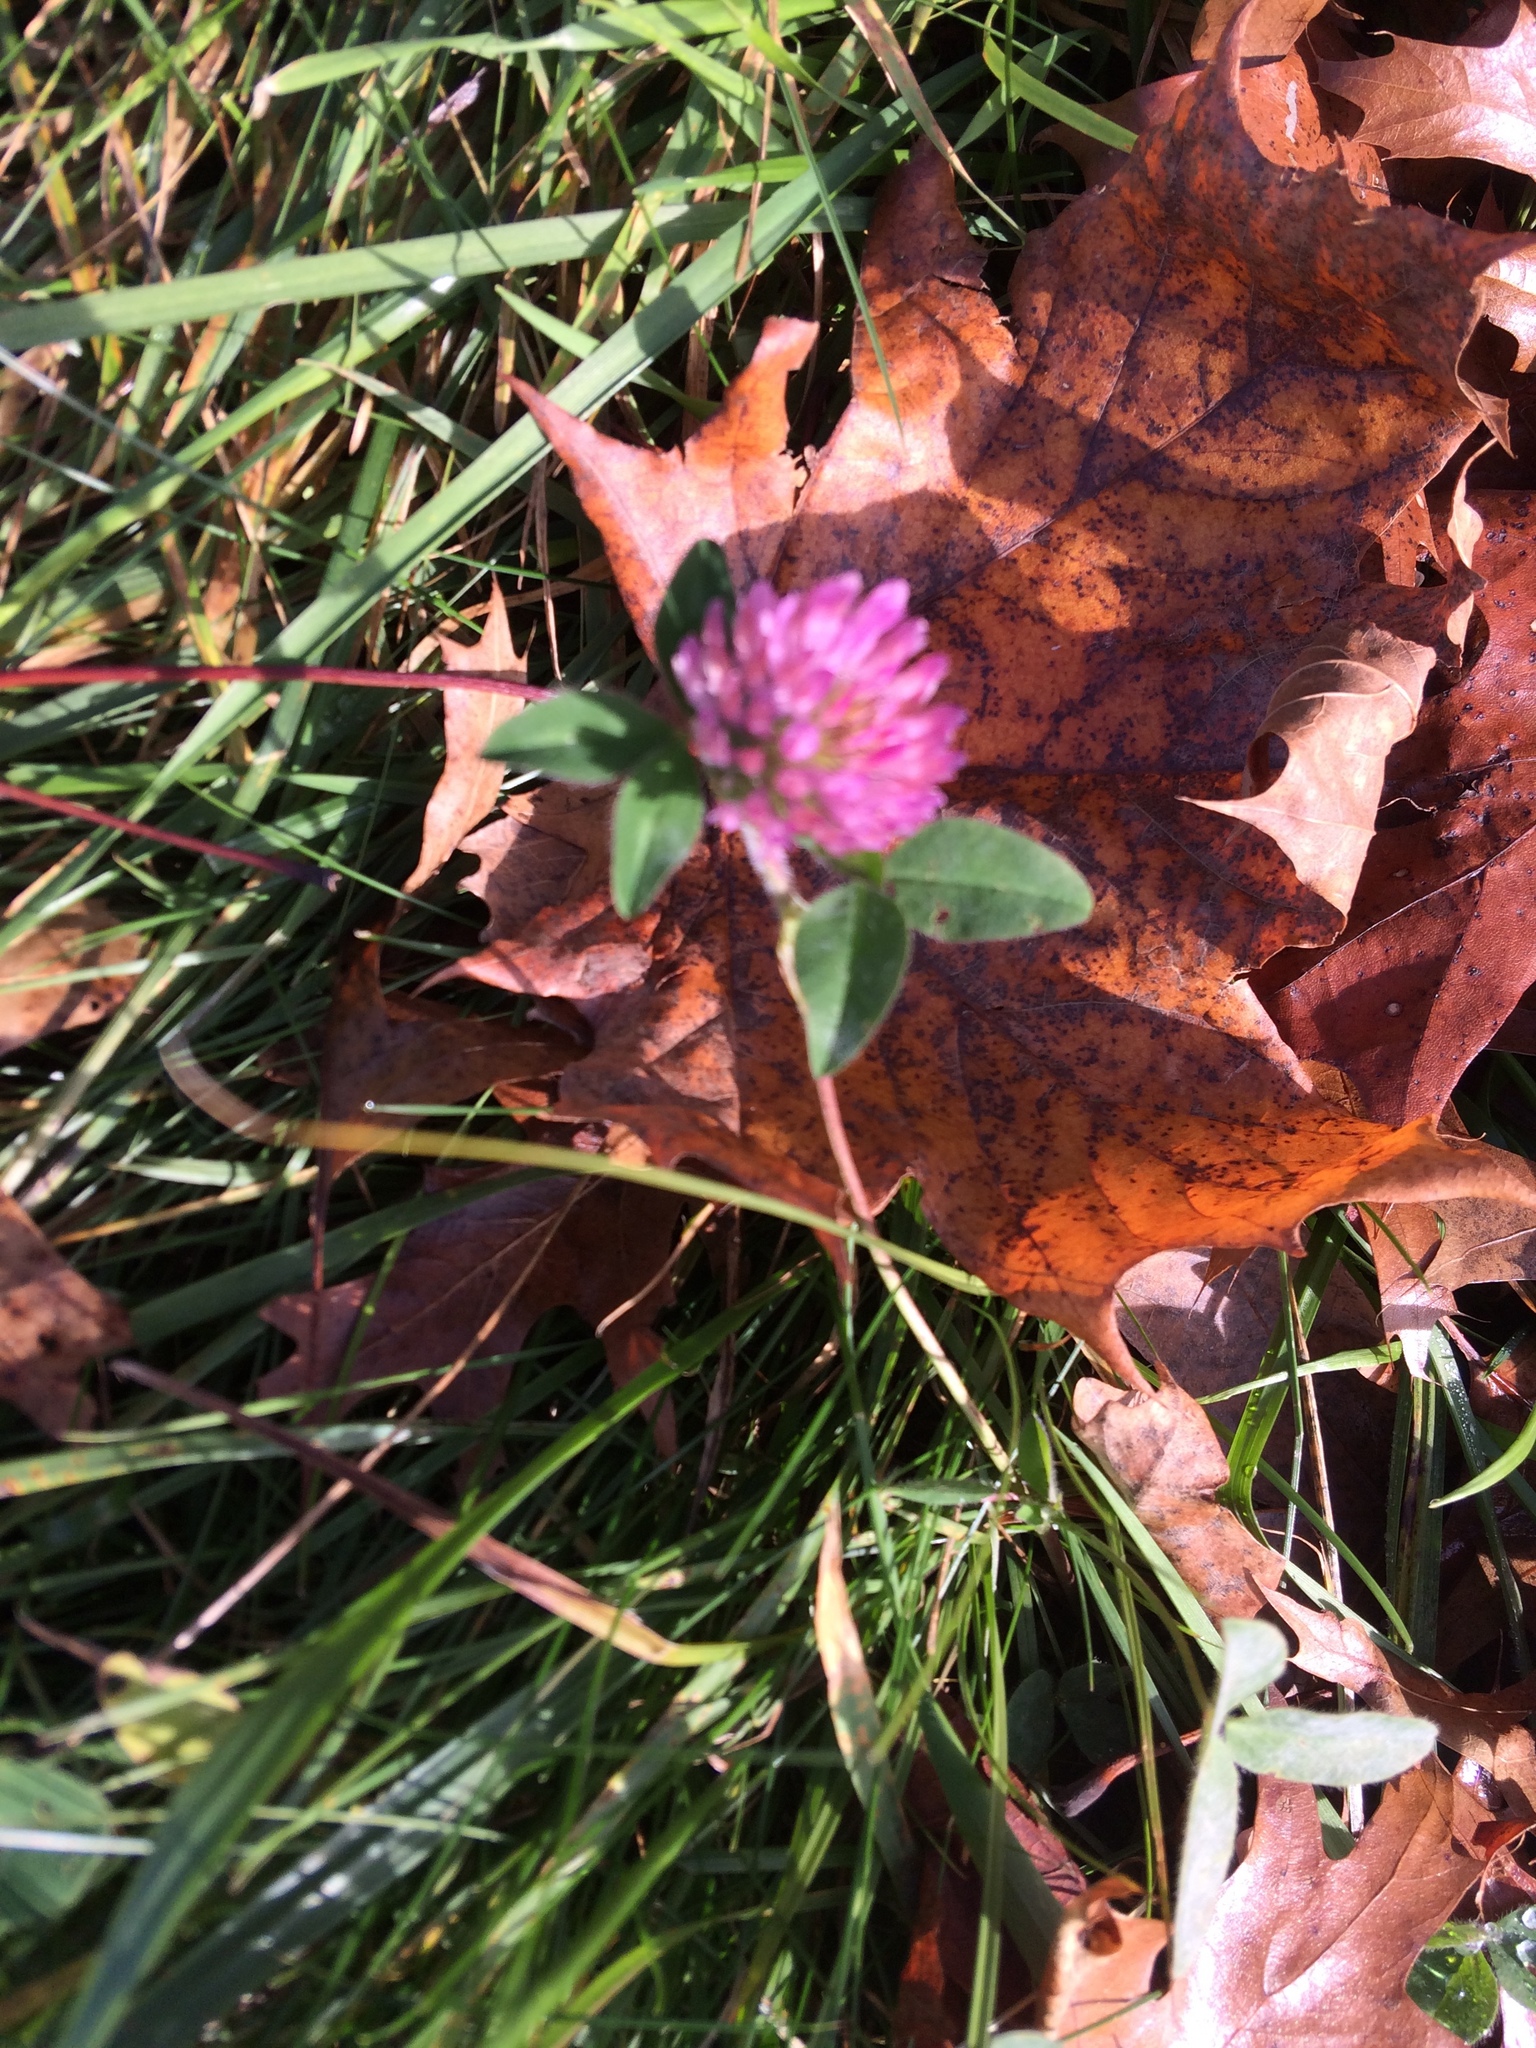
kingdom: Plantae
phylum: Tracheophyta
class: Magnoliopsida
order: Fabales
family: Fabaceae
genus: Trifolium
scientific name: Trifolium pratense
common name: Red clover
